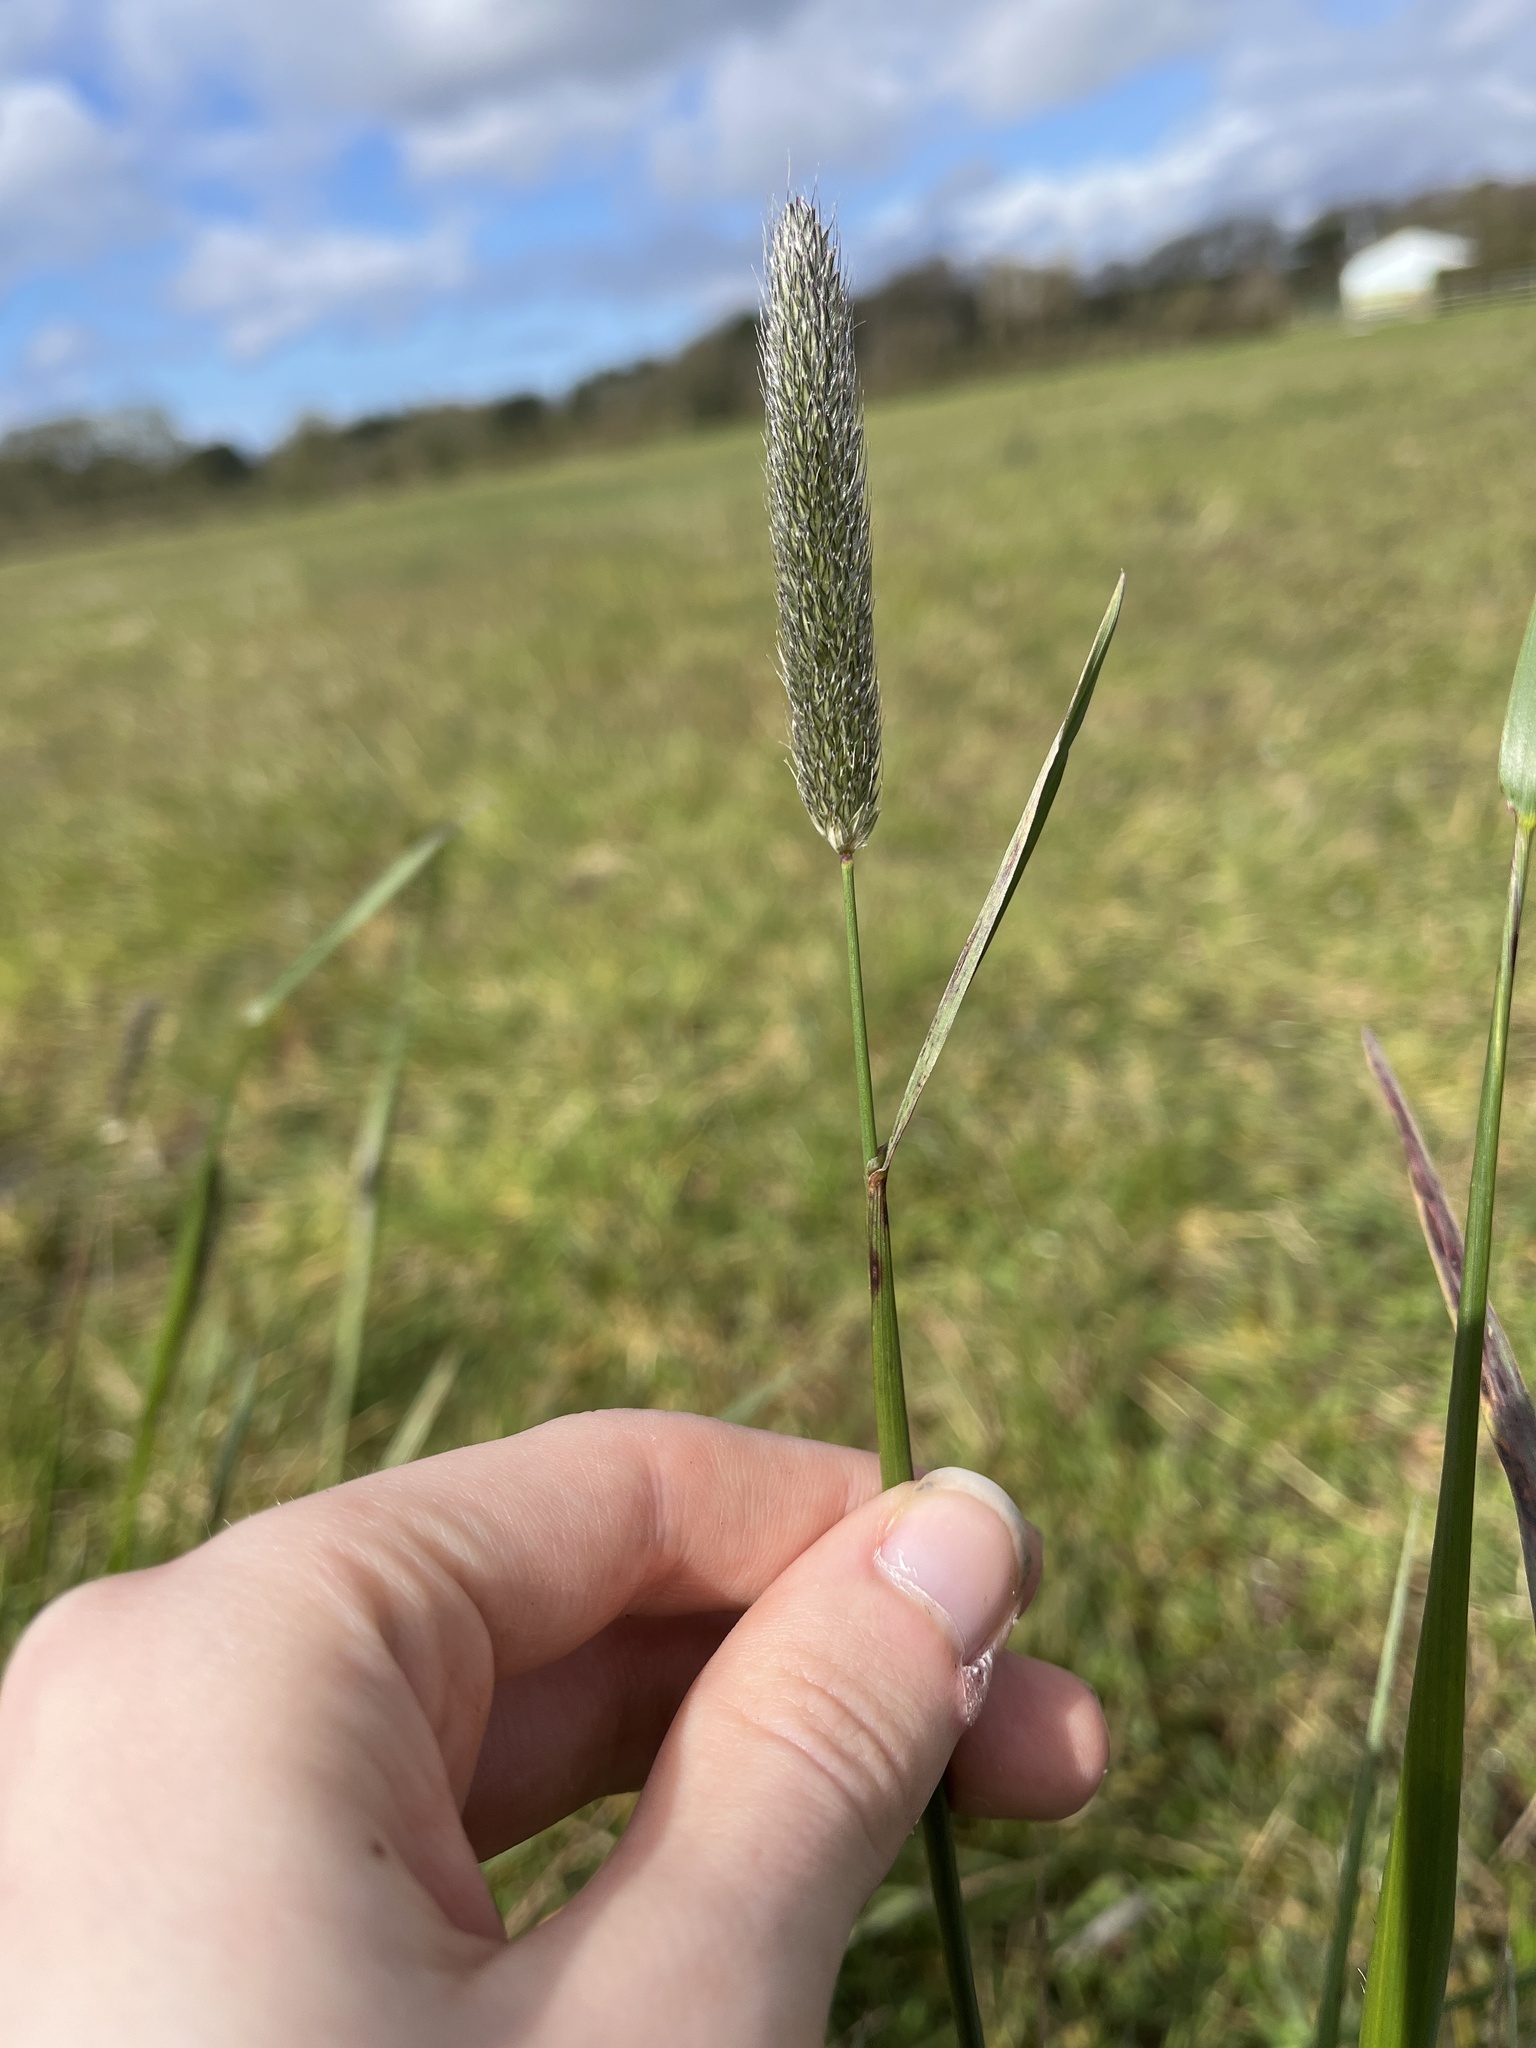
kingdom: Plantae
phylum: Tracheophyta
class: Liliopsida
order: Poales
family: Poaceae
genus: Alopecurus
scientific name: Alopecurus pratensis
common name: Meadow foxtail
